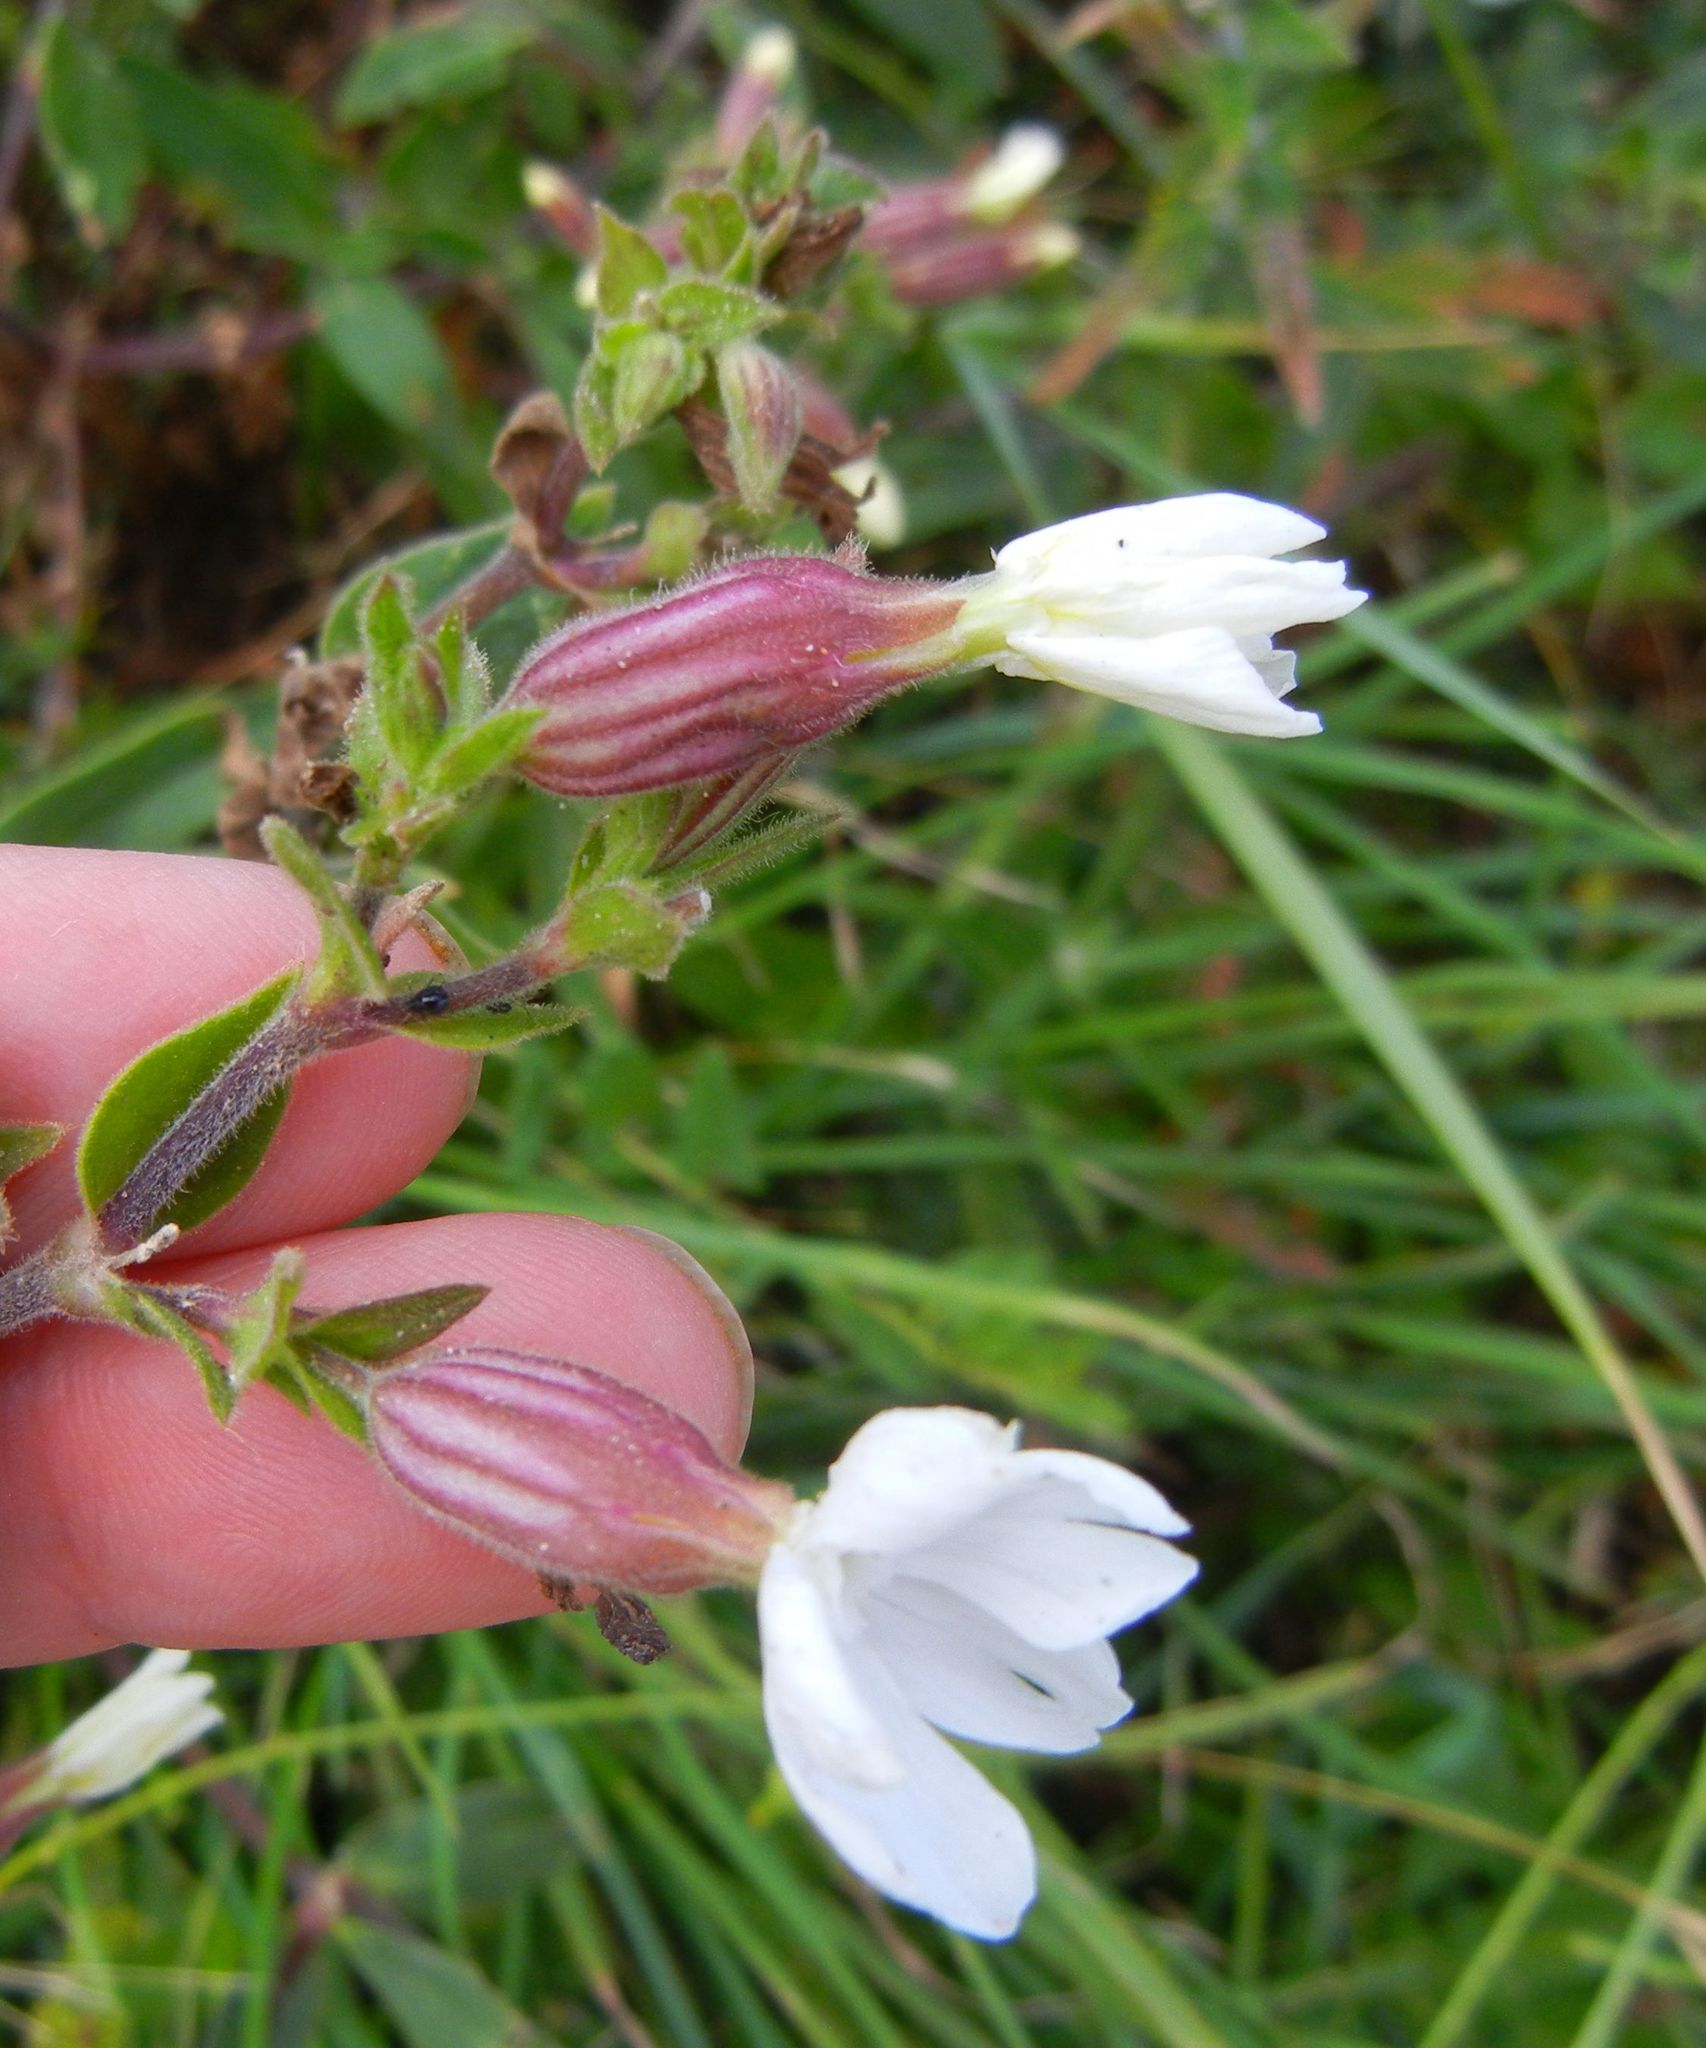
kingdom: Plantae
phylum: Tracheophyta
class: Magnoliopsida
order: Caryophyllales
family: Caryophyllaceae
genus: Silene
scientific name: Silene latifolia
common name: White campion
